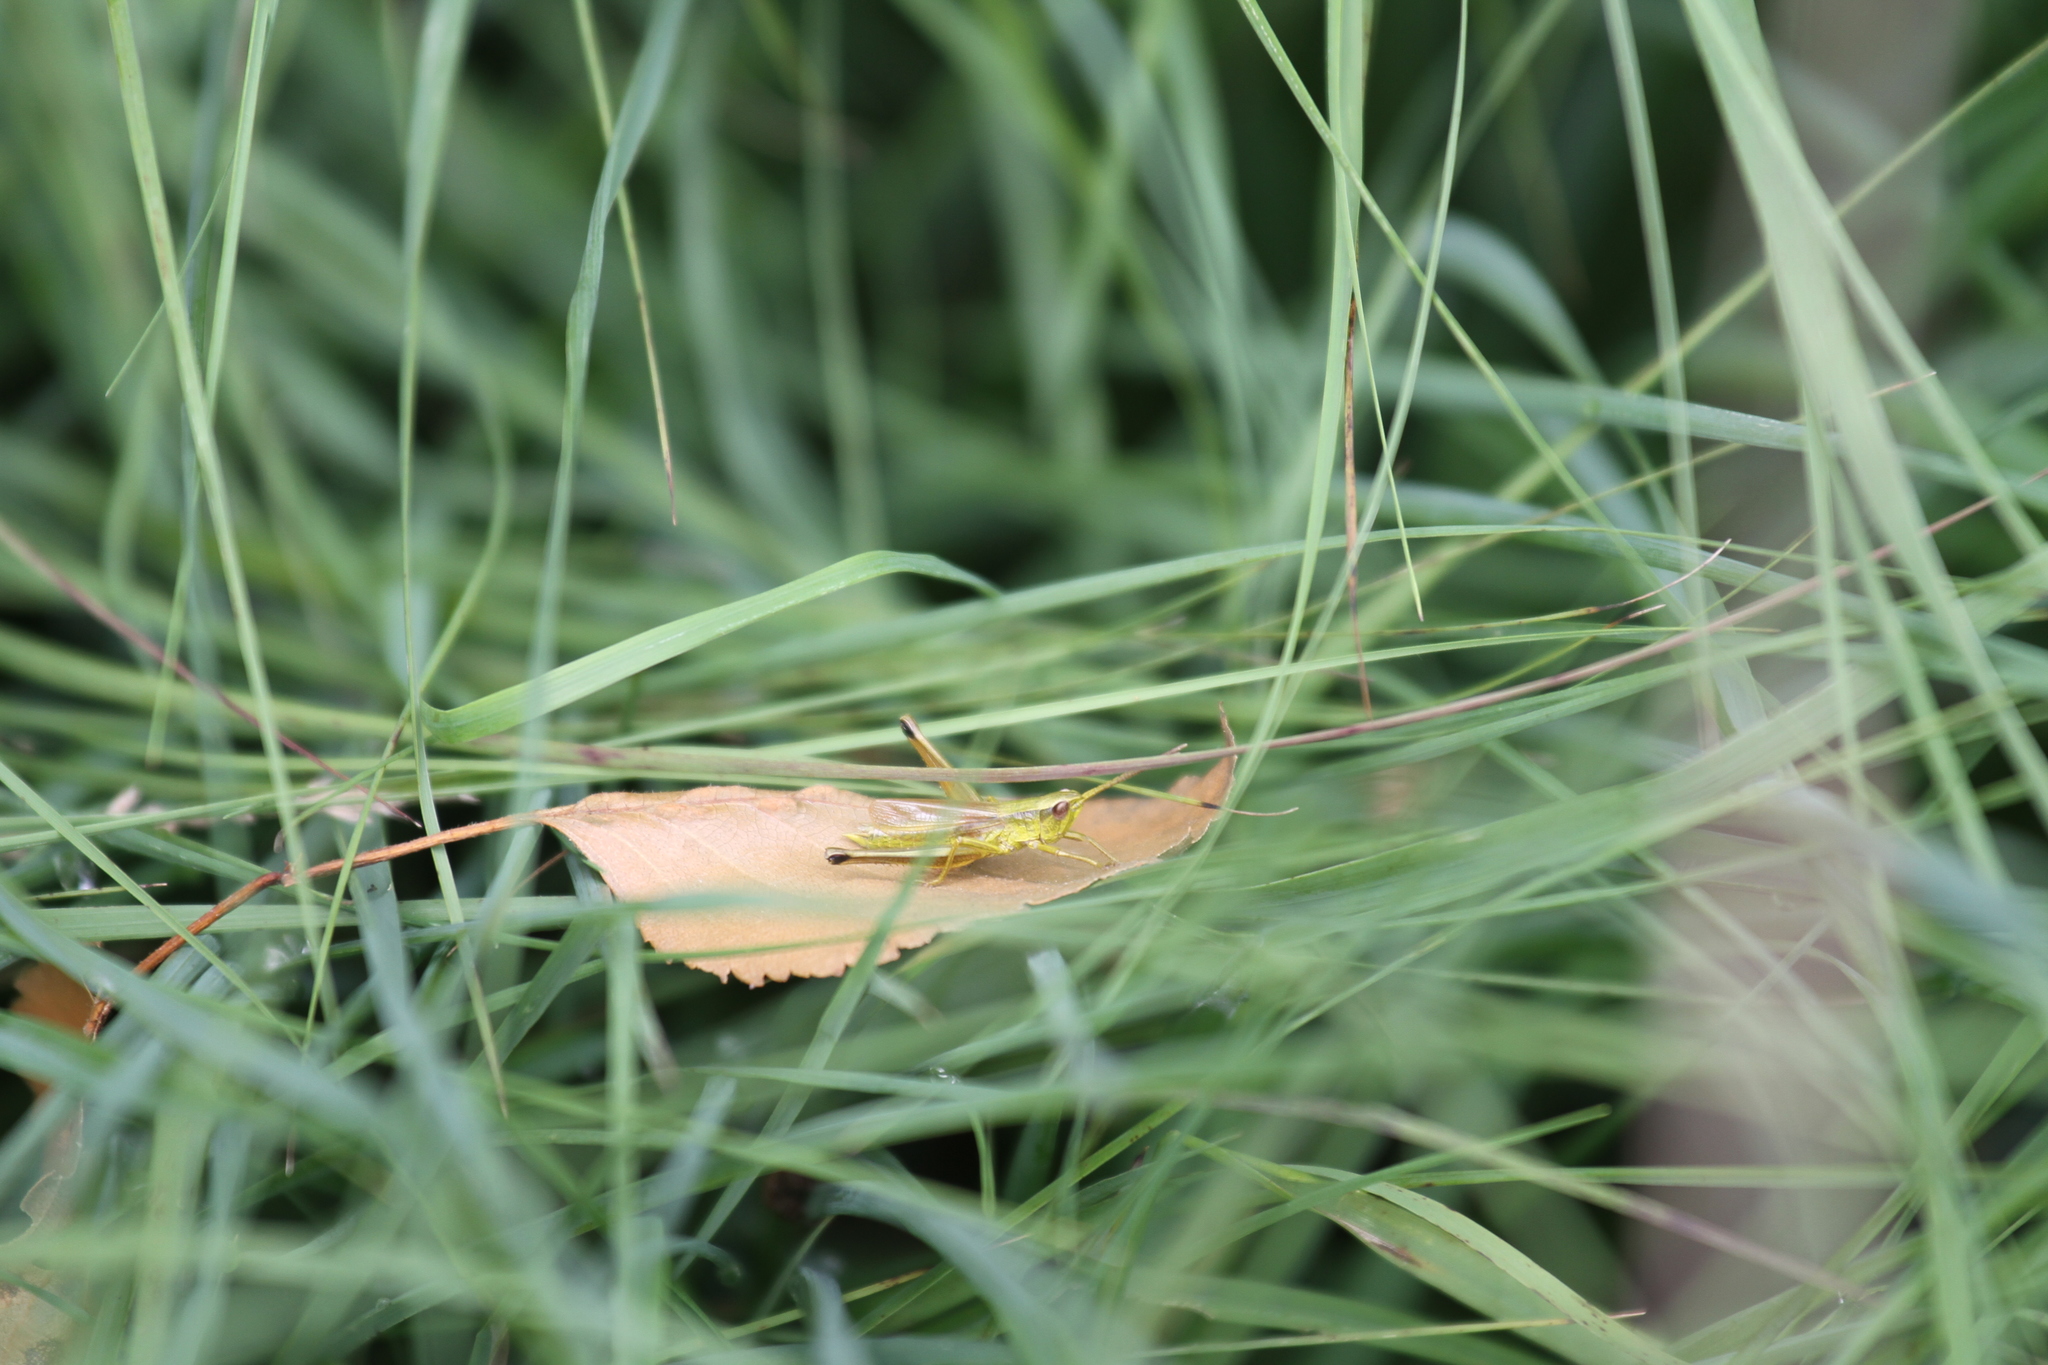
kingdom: Animalia
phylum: Arthropoda
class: Insecta
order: Orthoptera
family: Acrididae
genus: Chrysochraon
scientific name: Chrysochraon dispar
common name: Large gold grasshopper
